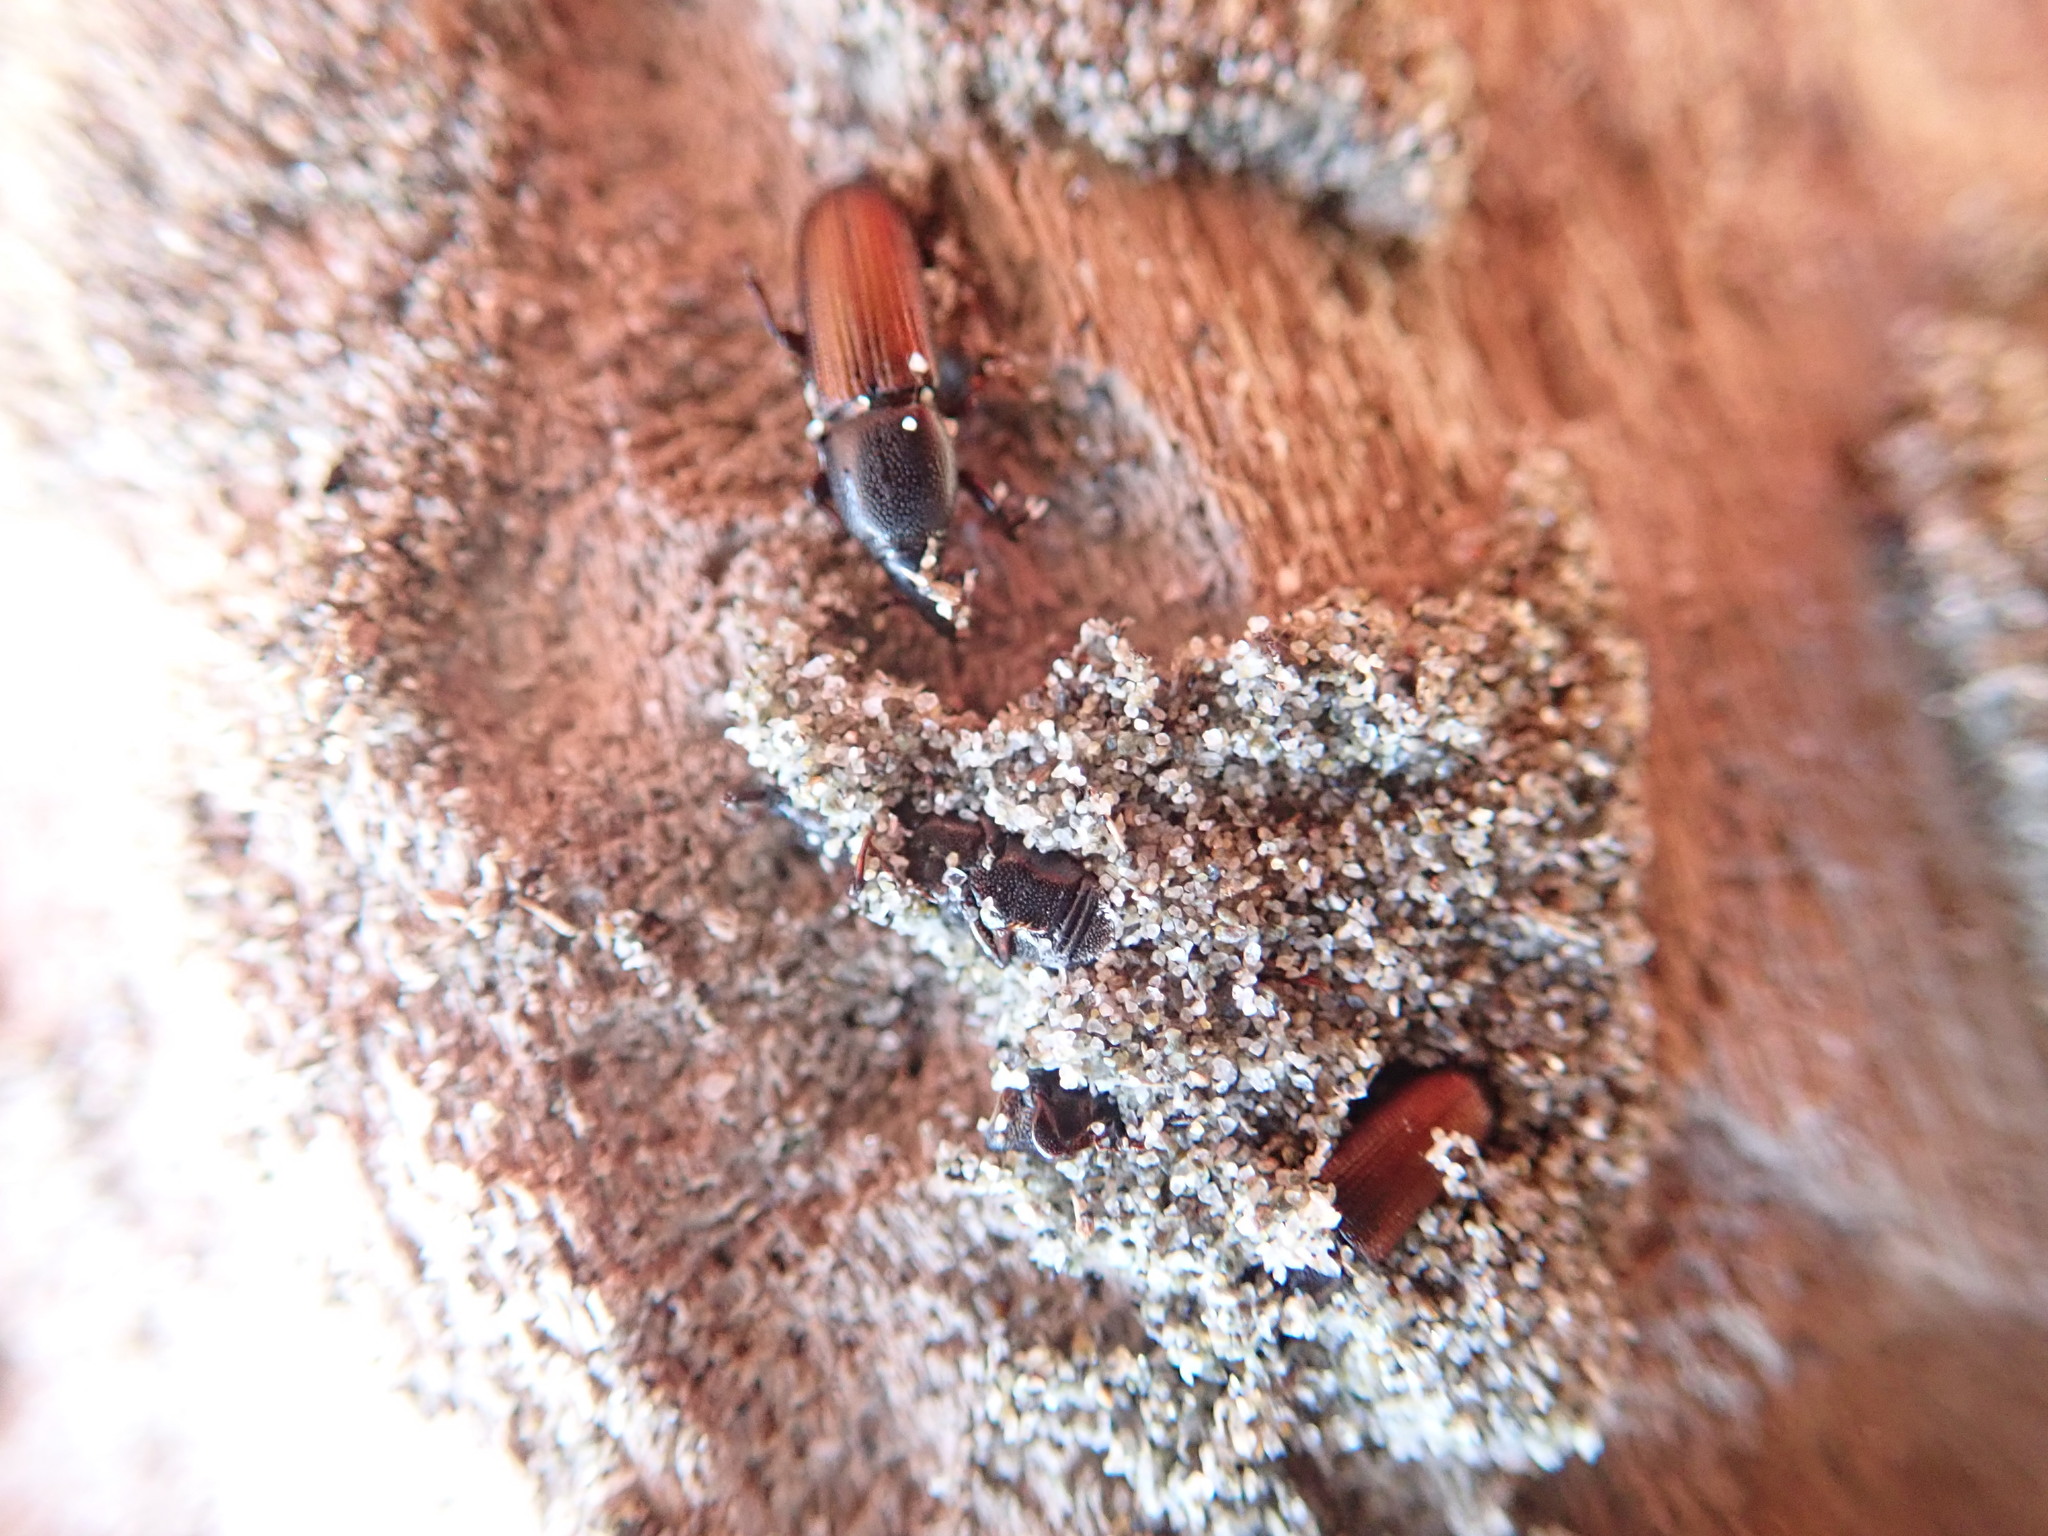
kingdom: Animalia
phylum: Arthropoda
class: Insecta
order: Coleoptera
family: Curculionidae
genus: Mesites
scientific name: Mesites pallidipennis
